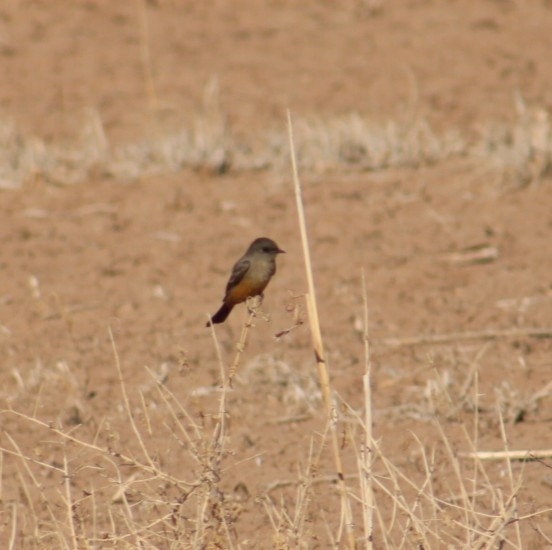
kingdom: Animalia
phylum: Chordata
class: Aves
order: Passeriformes
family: Tyrannidae
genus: Sayornis
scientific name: Sayornis saya
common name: Say's phoebe
